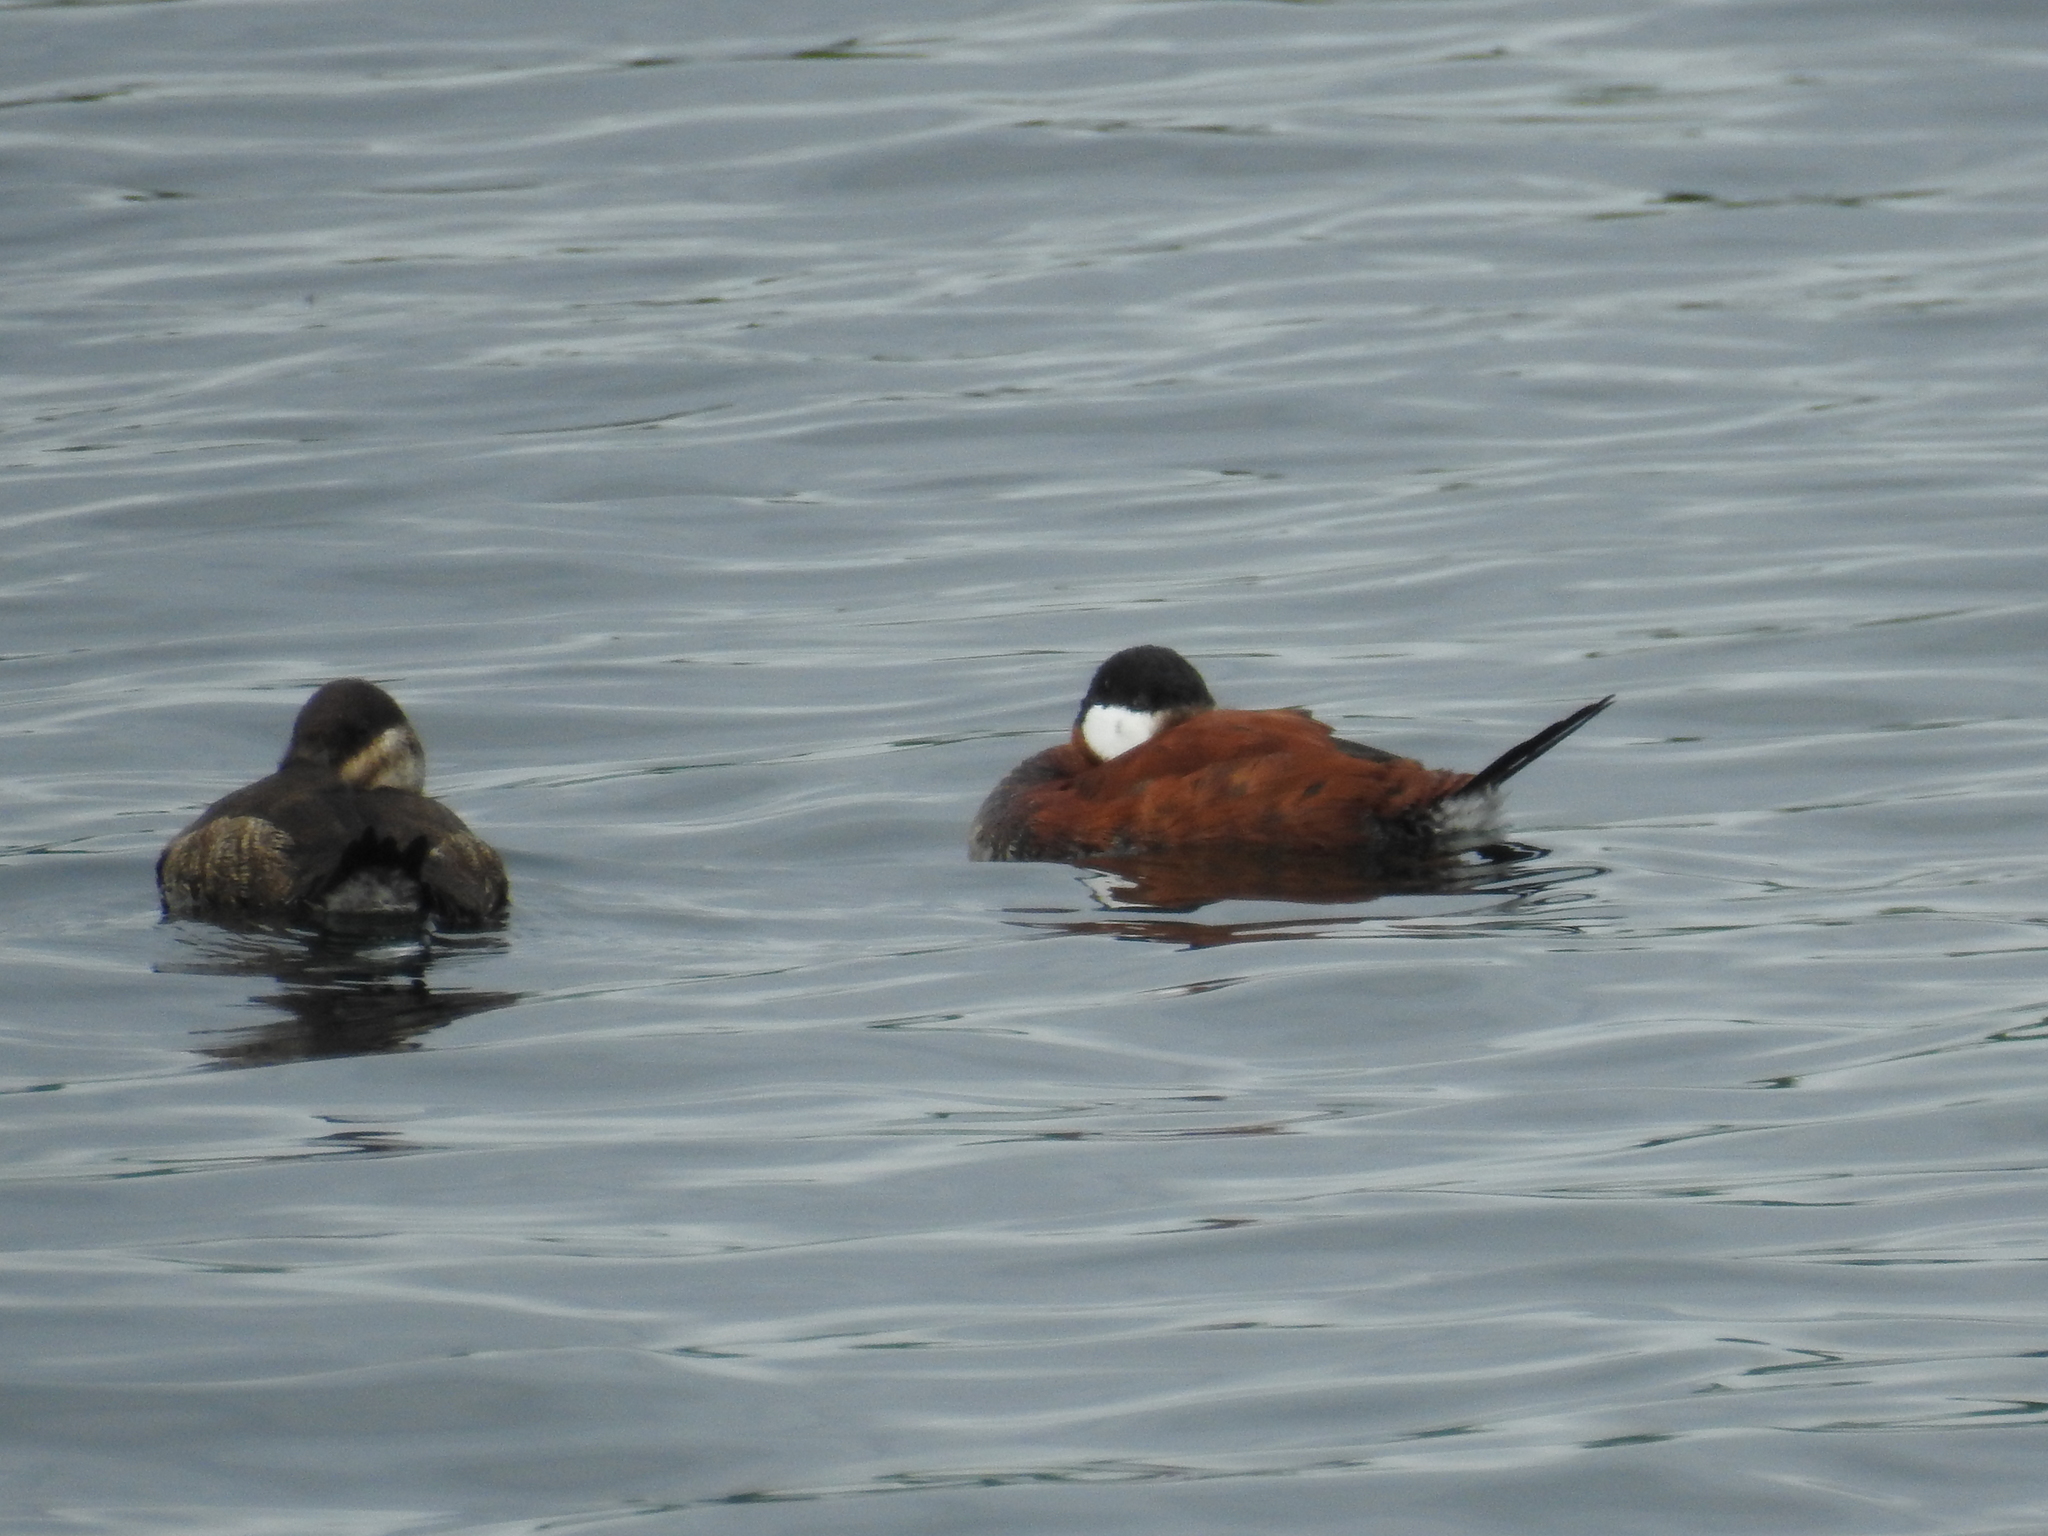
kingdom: Animalia
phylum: Chordata
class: Aves
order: Anseriformes
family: Anatidae
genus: Oxyura
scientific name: Oxyura jamaicensis
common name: Ruddy duck
